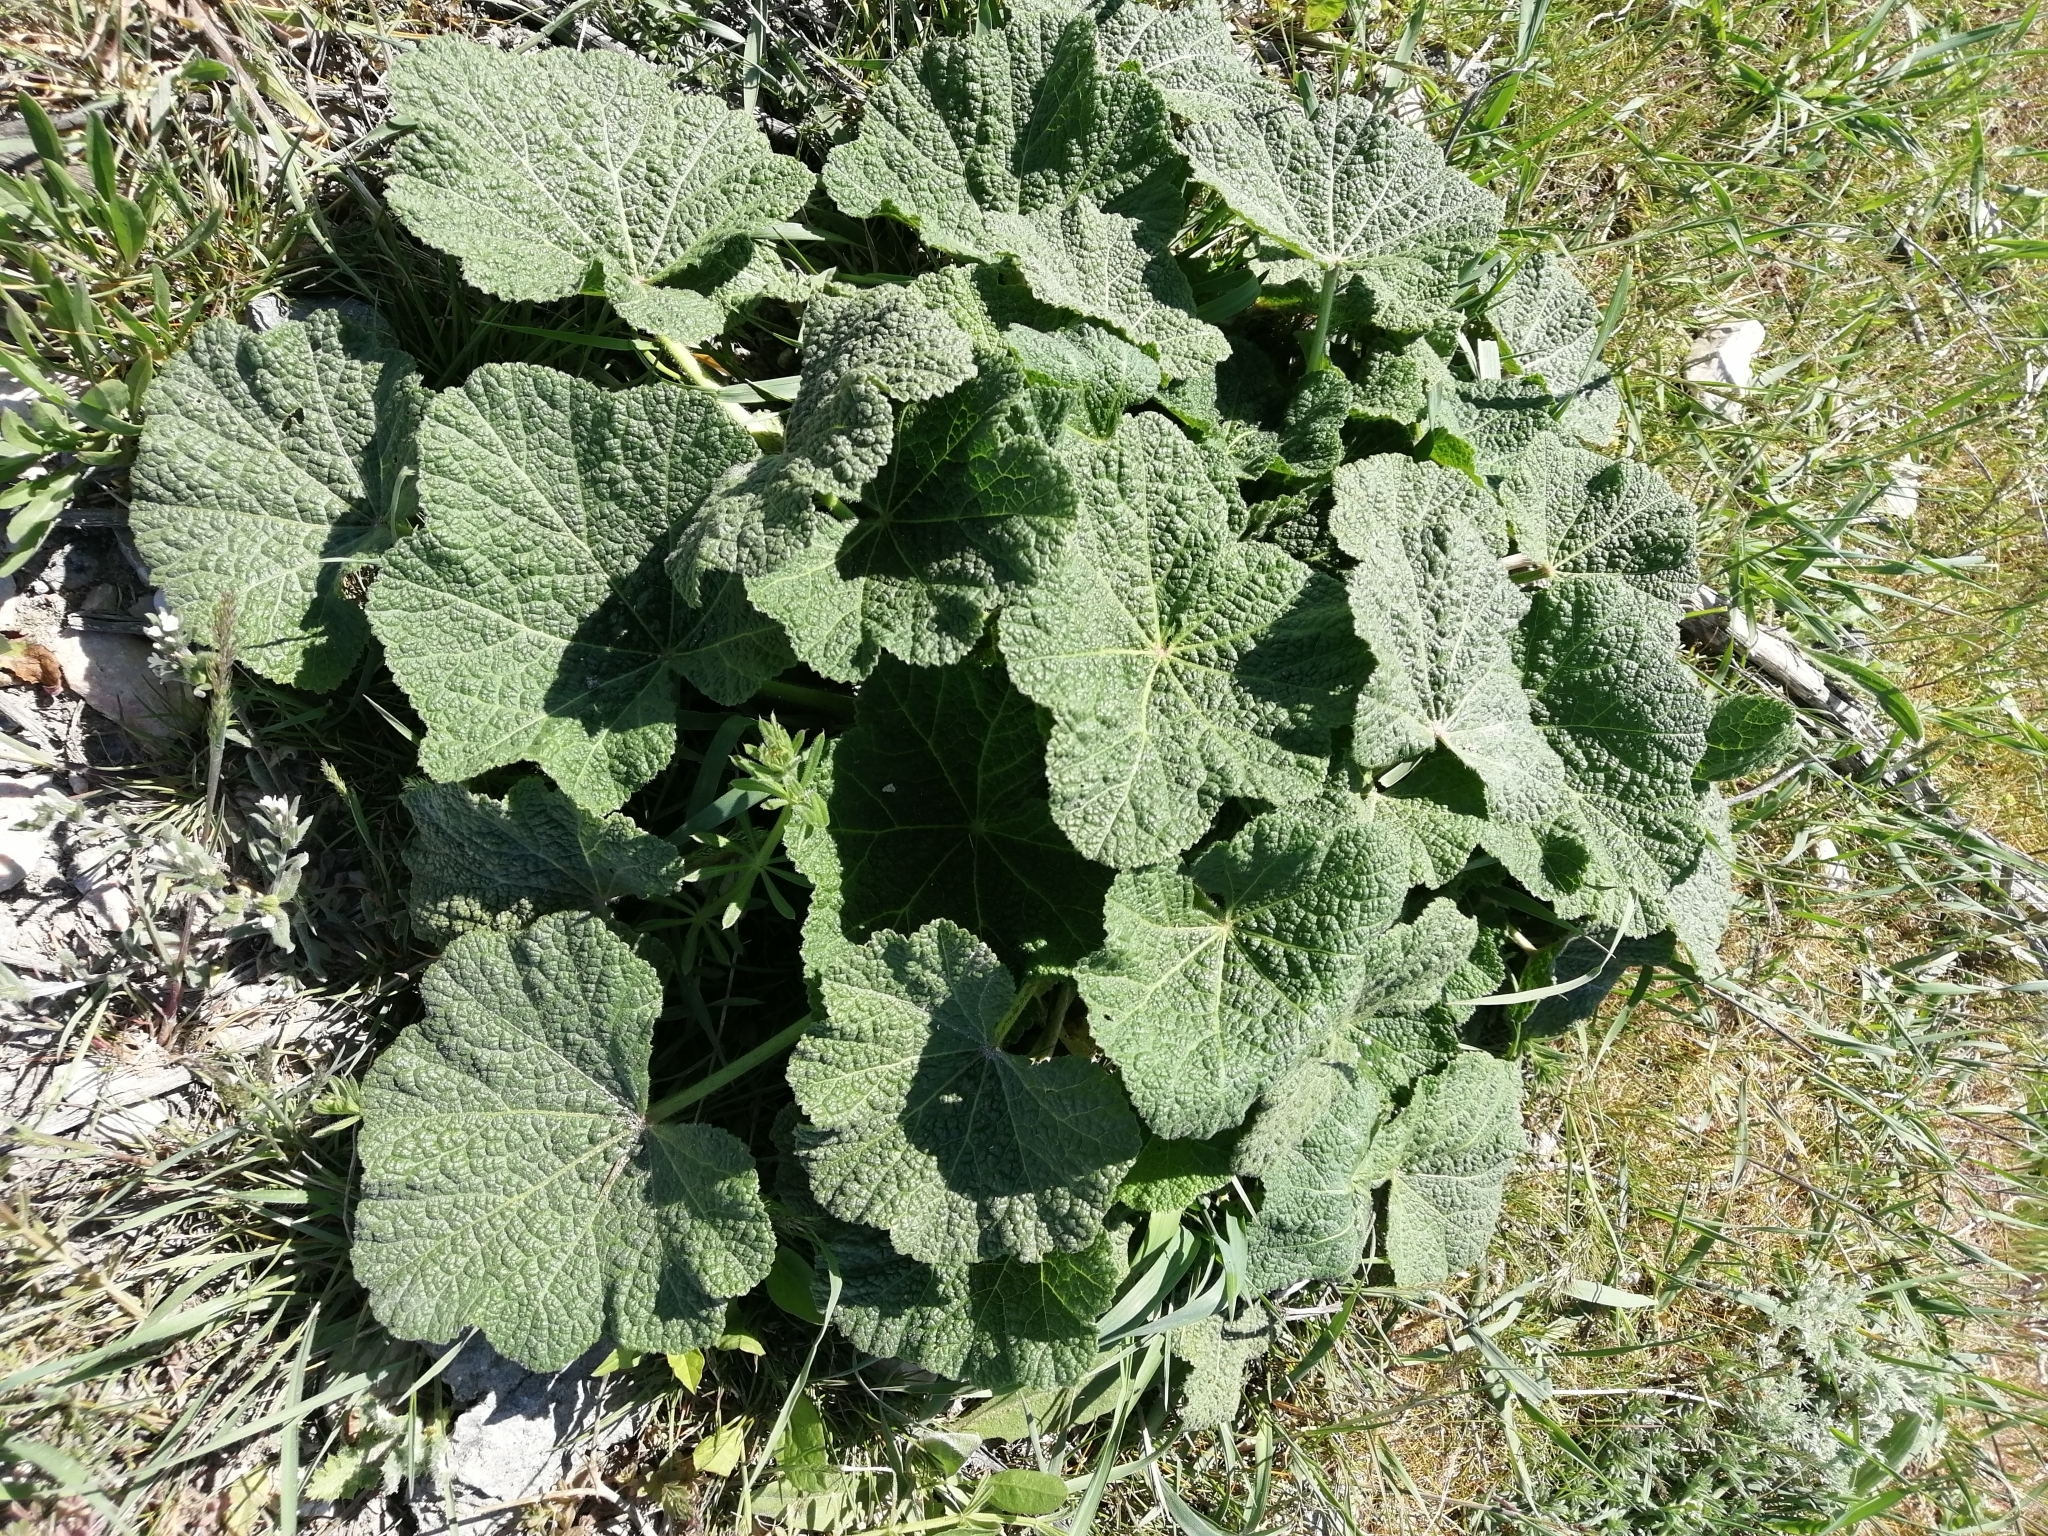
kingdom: Plantae
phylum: Tracheophyta
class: Magnoliopsida
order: Malvales
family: Malvaceae
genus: Alcea
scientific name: Alcea rugosa
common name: Russian hollyhock
